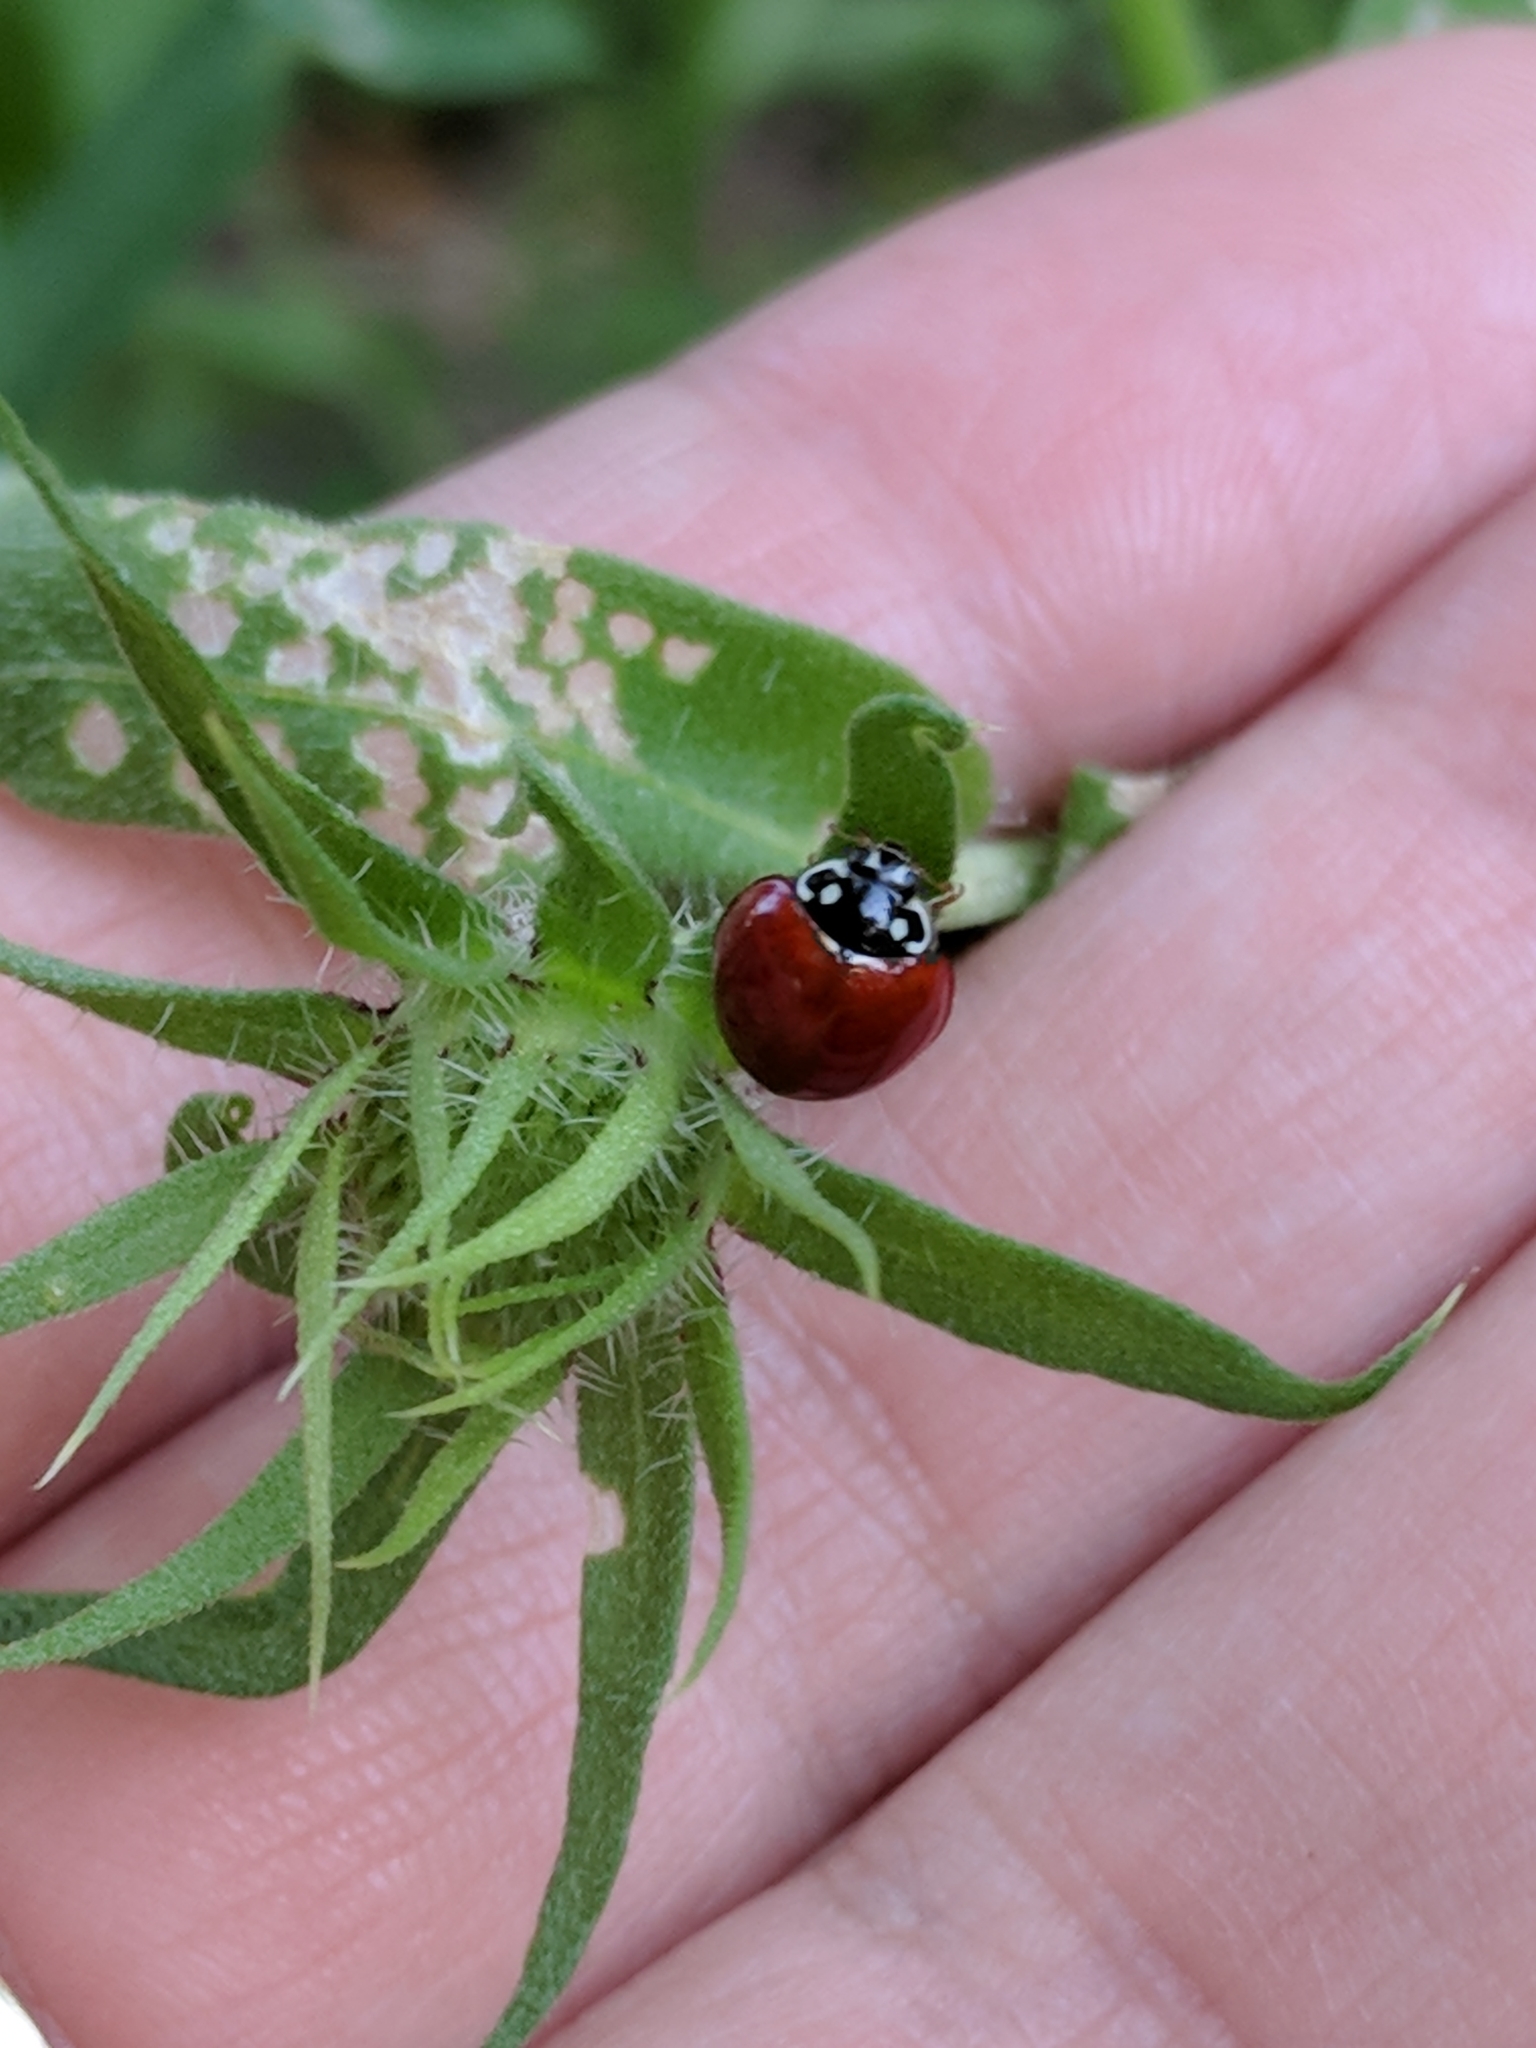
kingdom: Animalia
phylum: Arthropoda
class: Insecta
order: Coleoptera
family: Coccinellidae
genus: Cycloneda
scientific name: Cycloneda sanguinea
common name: Ladybird beetle
